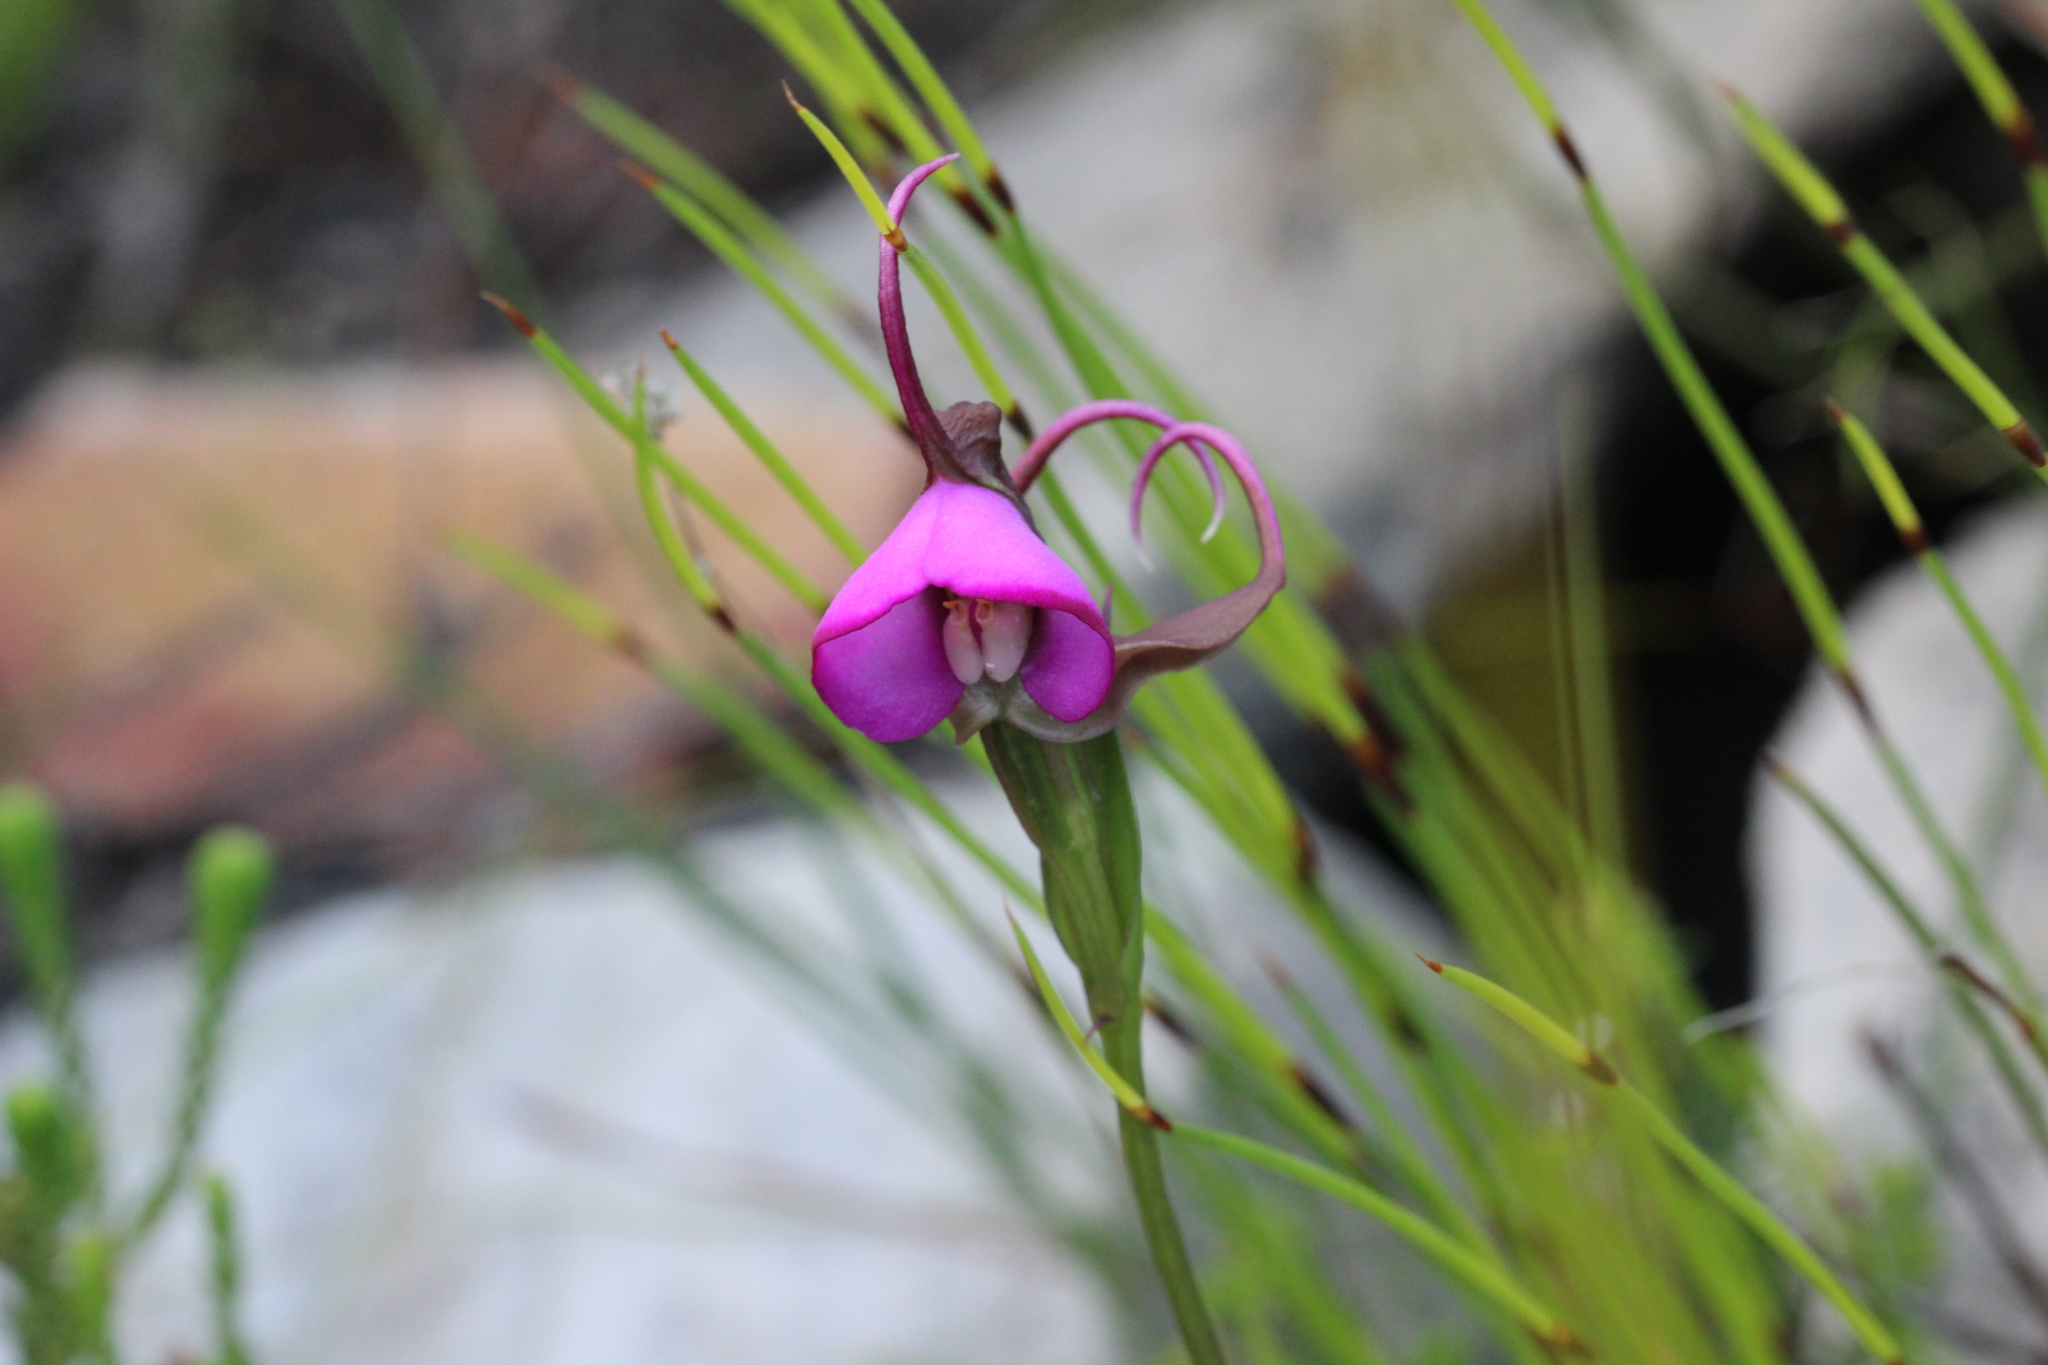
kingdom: Plantae
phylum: Tracheophyta
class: Liliopsida
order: Asparagales
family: Orchidaceae
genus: Disperis
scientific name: Disperis capensis
